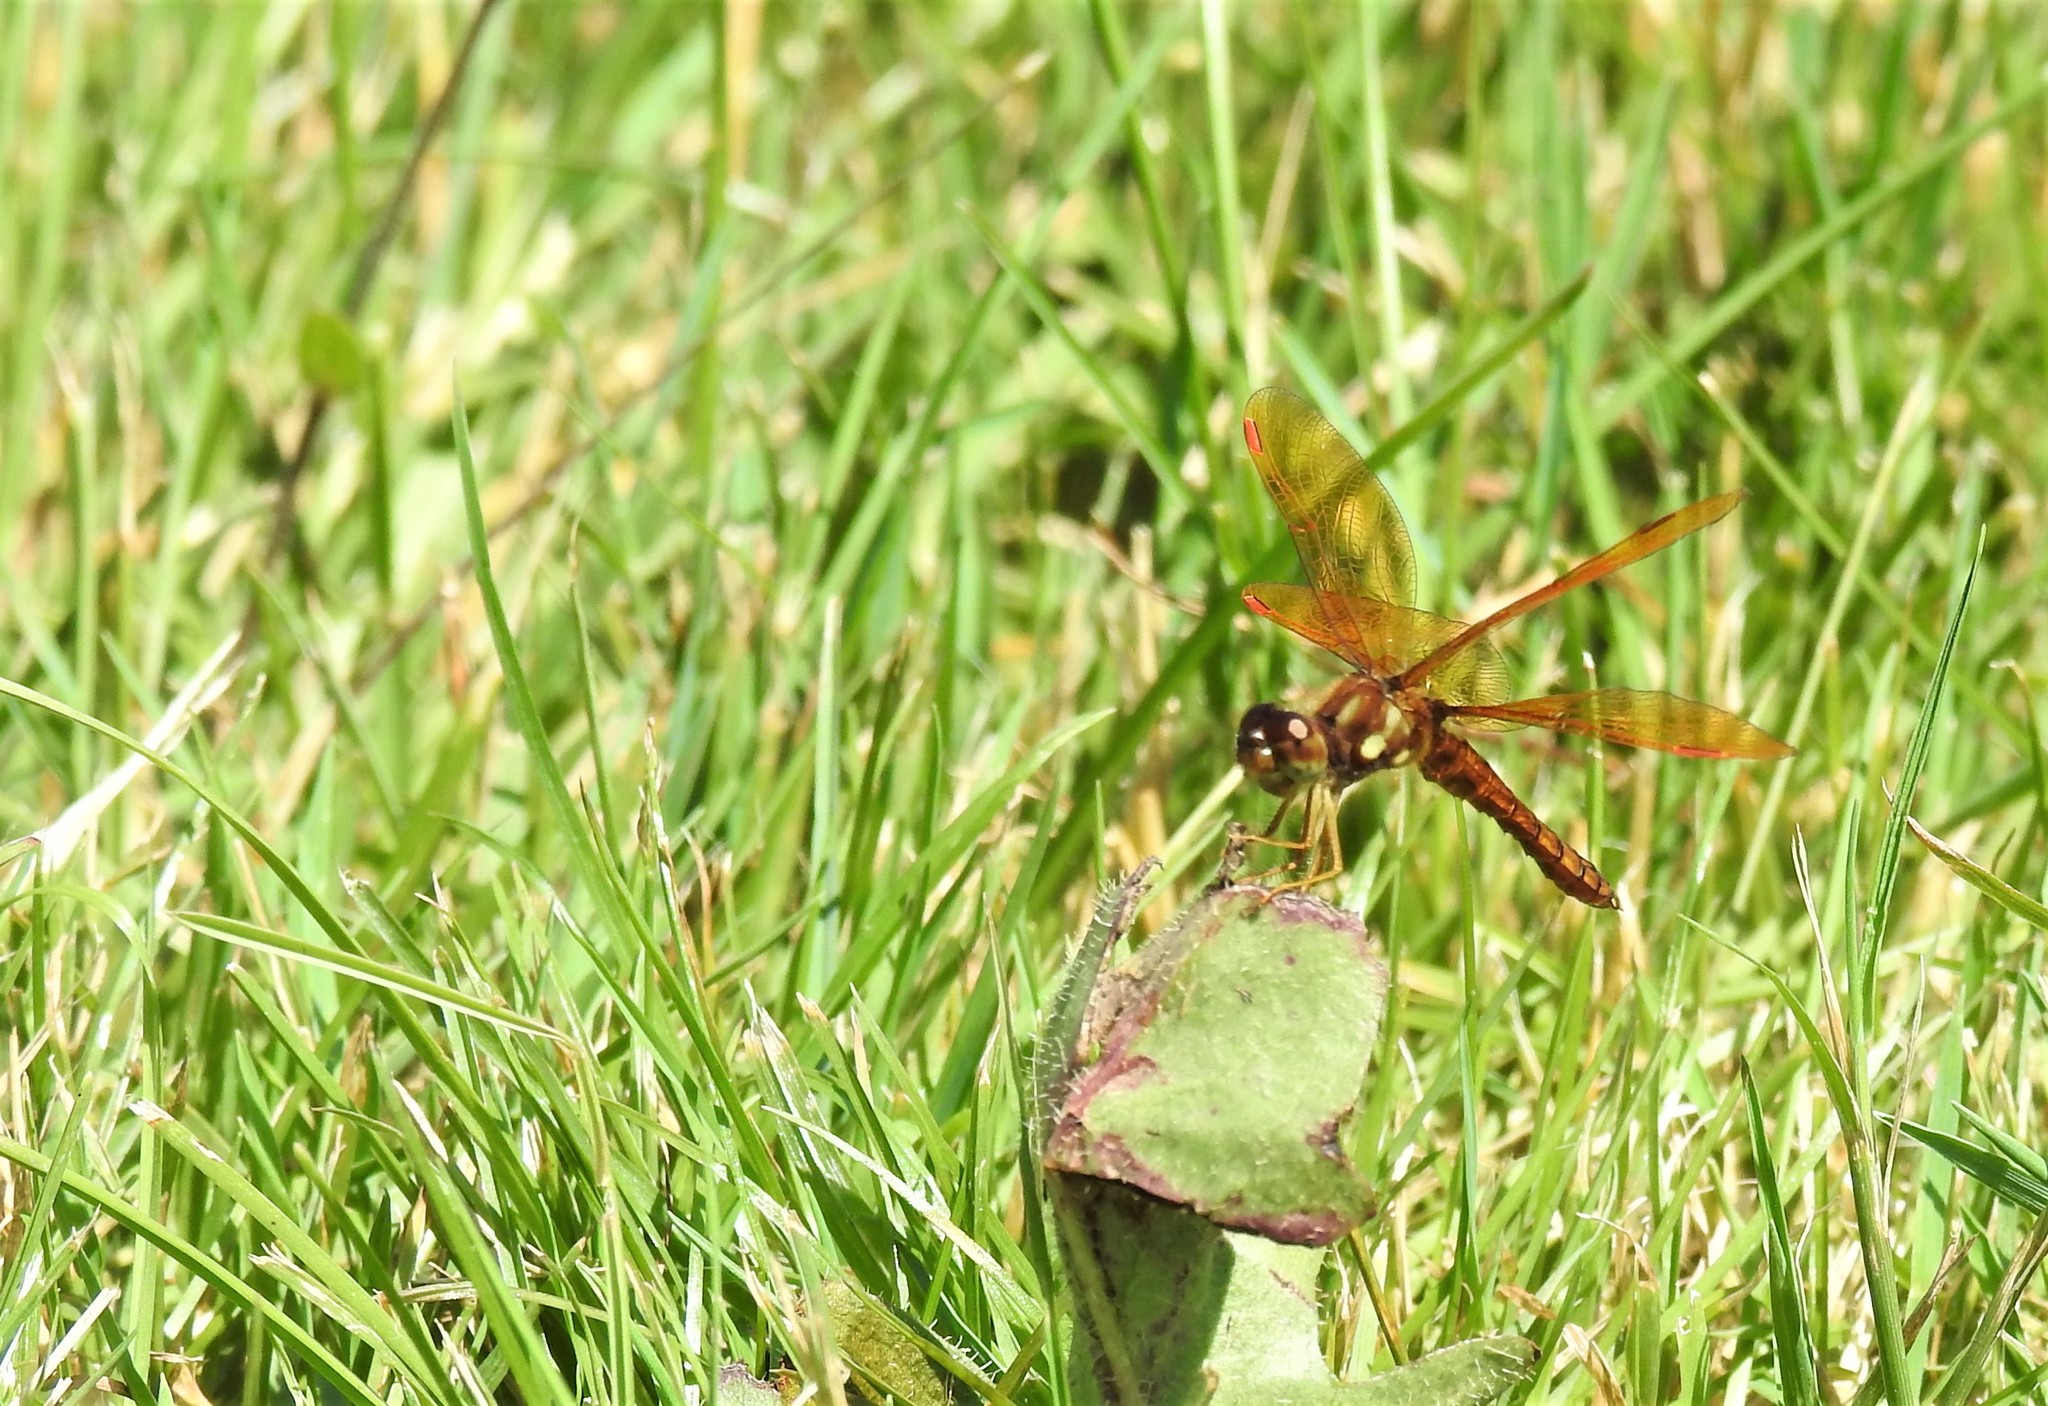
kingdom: Animalia
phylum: Arthropoda
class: Insecta
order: Odonata
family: Libellulidae
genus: Perithemis
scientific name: Perithemis tenera
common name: Eastern amberwing
